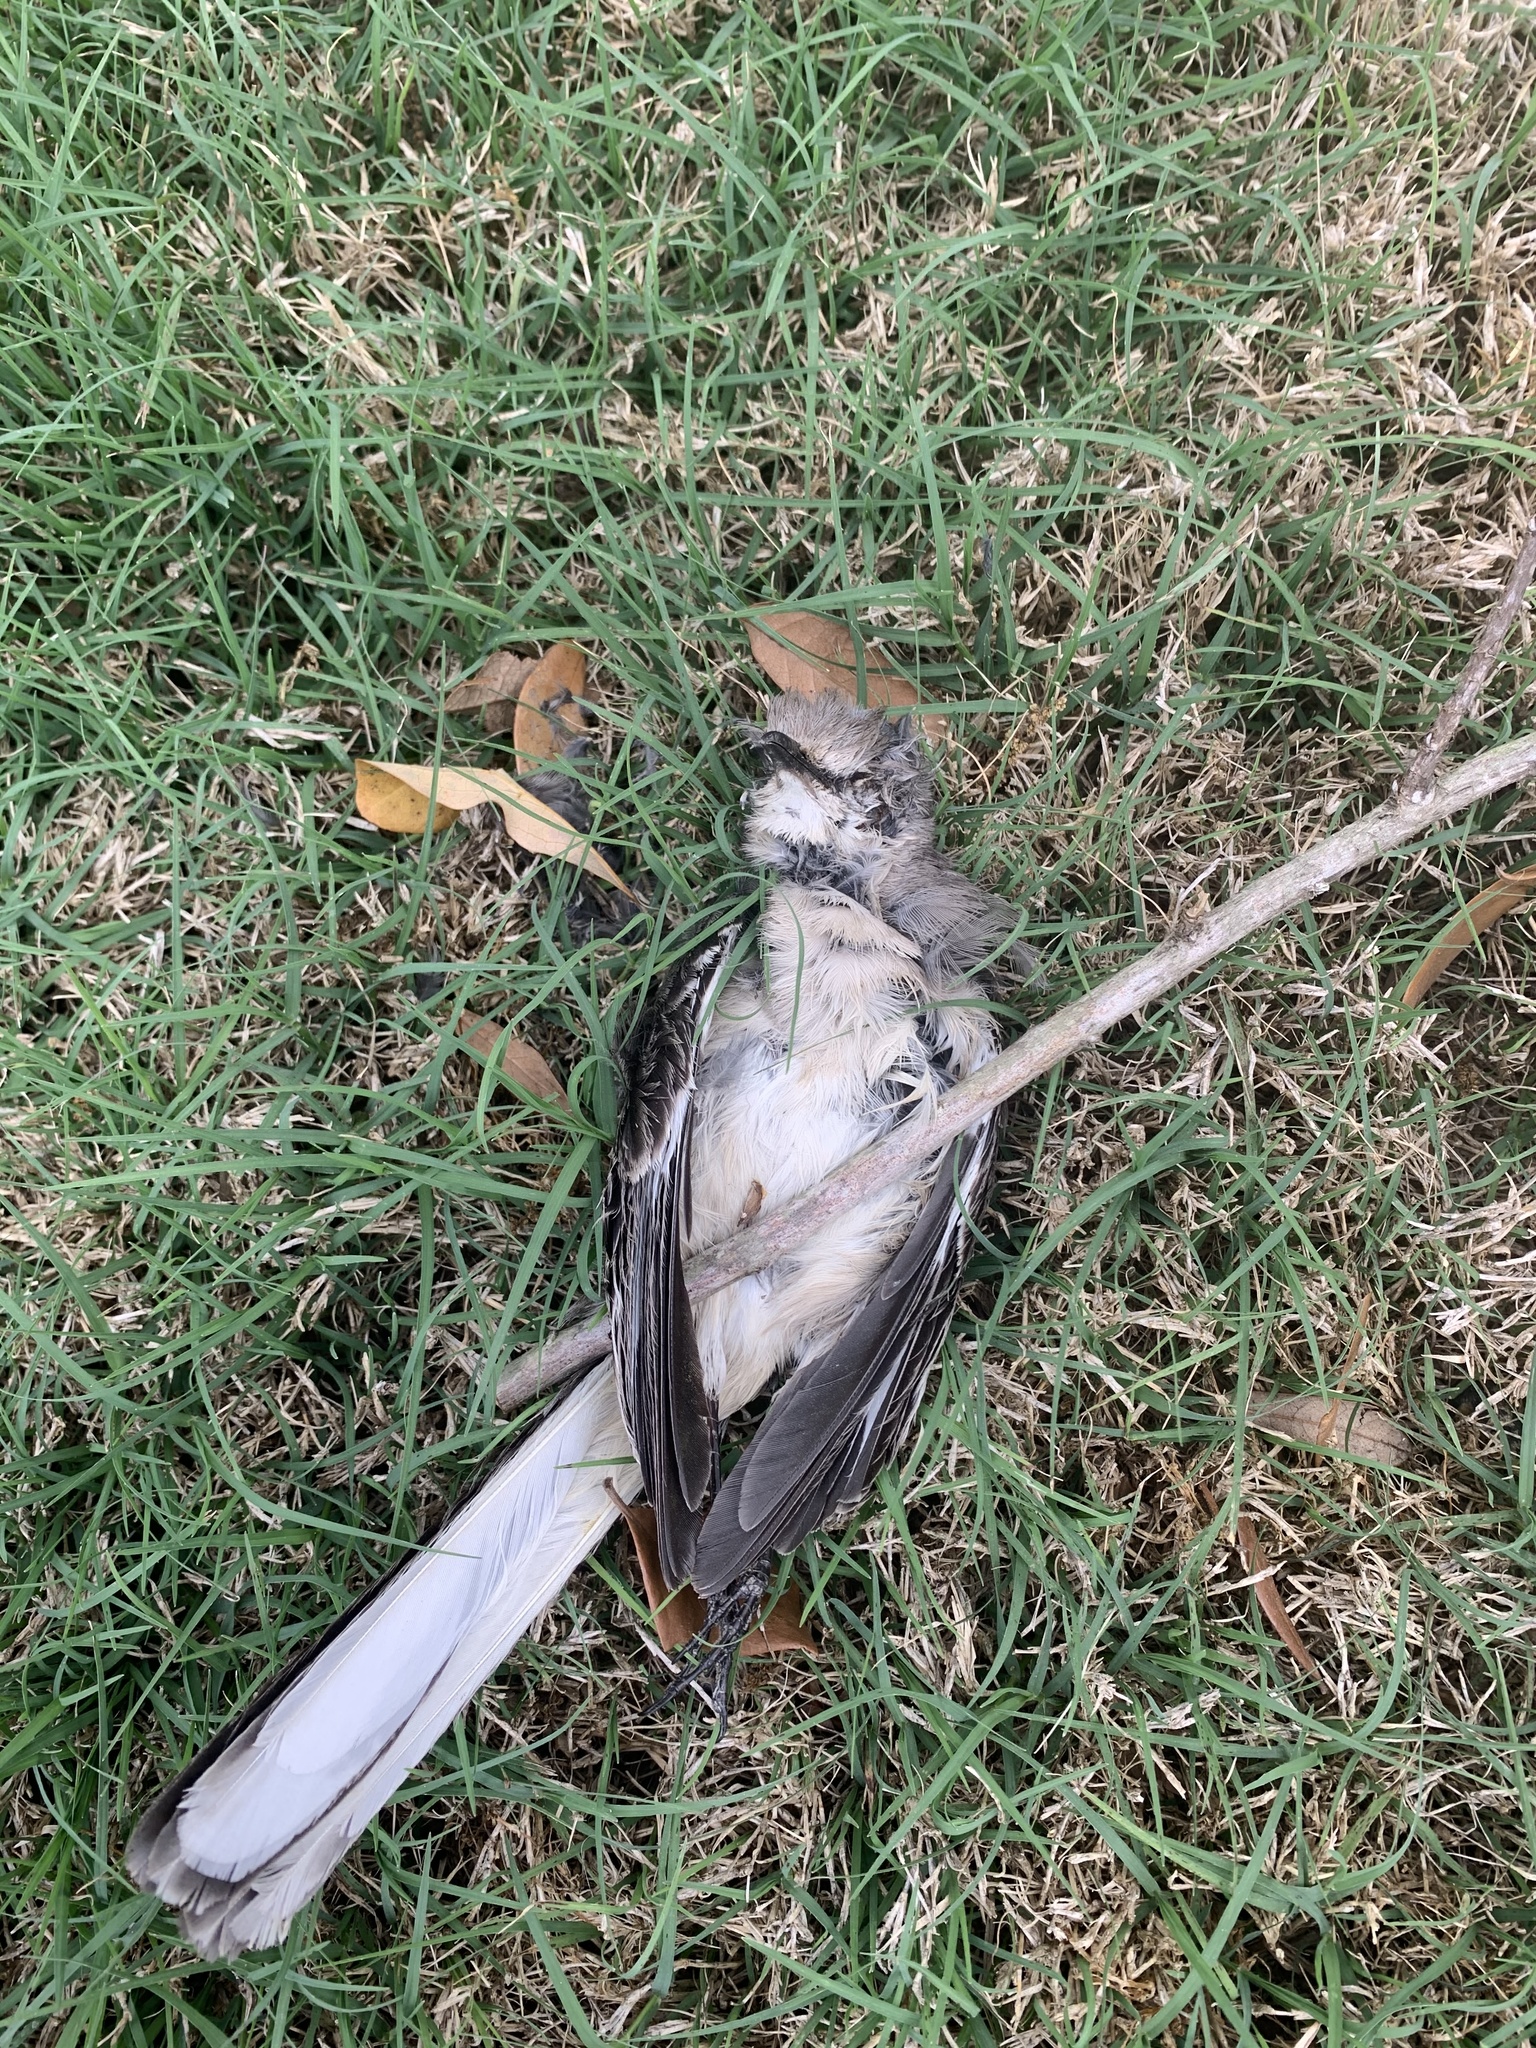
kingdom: Animalia
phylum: Chordata
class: Aves
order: Passeriformes
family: Mimidae
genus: Mimus
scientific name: Mimus polyglottos
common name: Northern mockingbird
